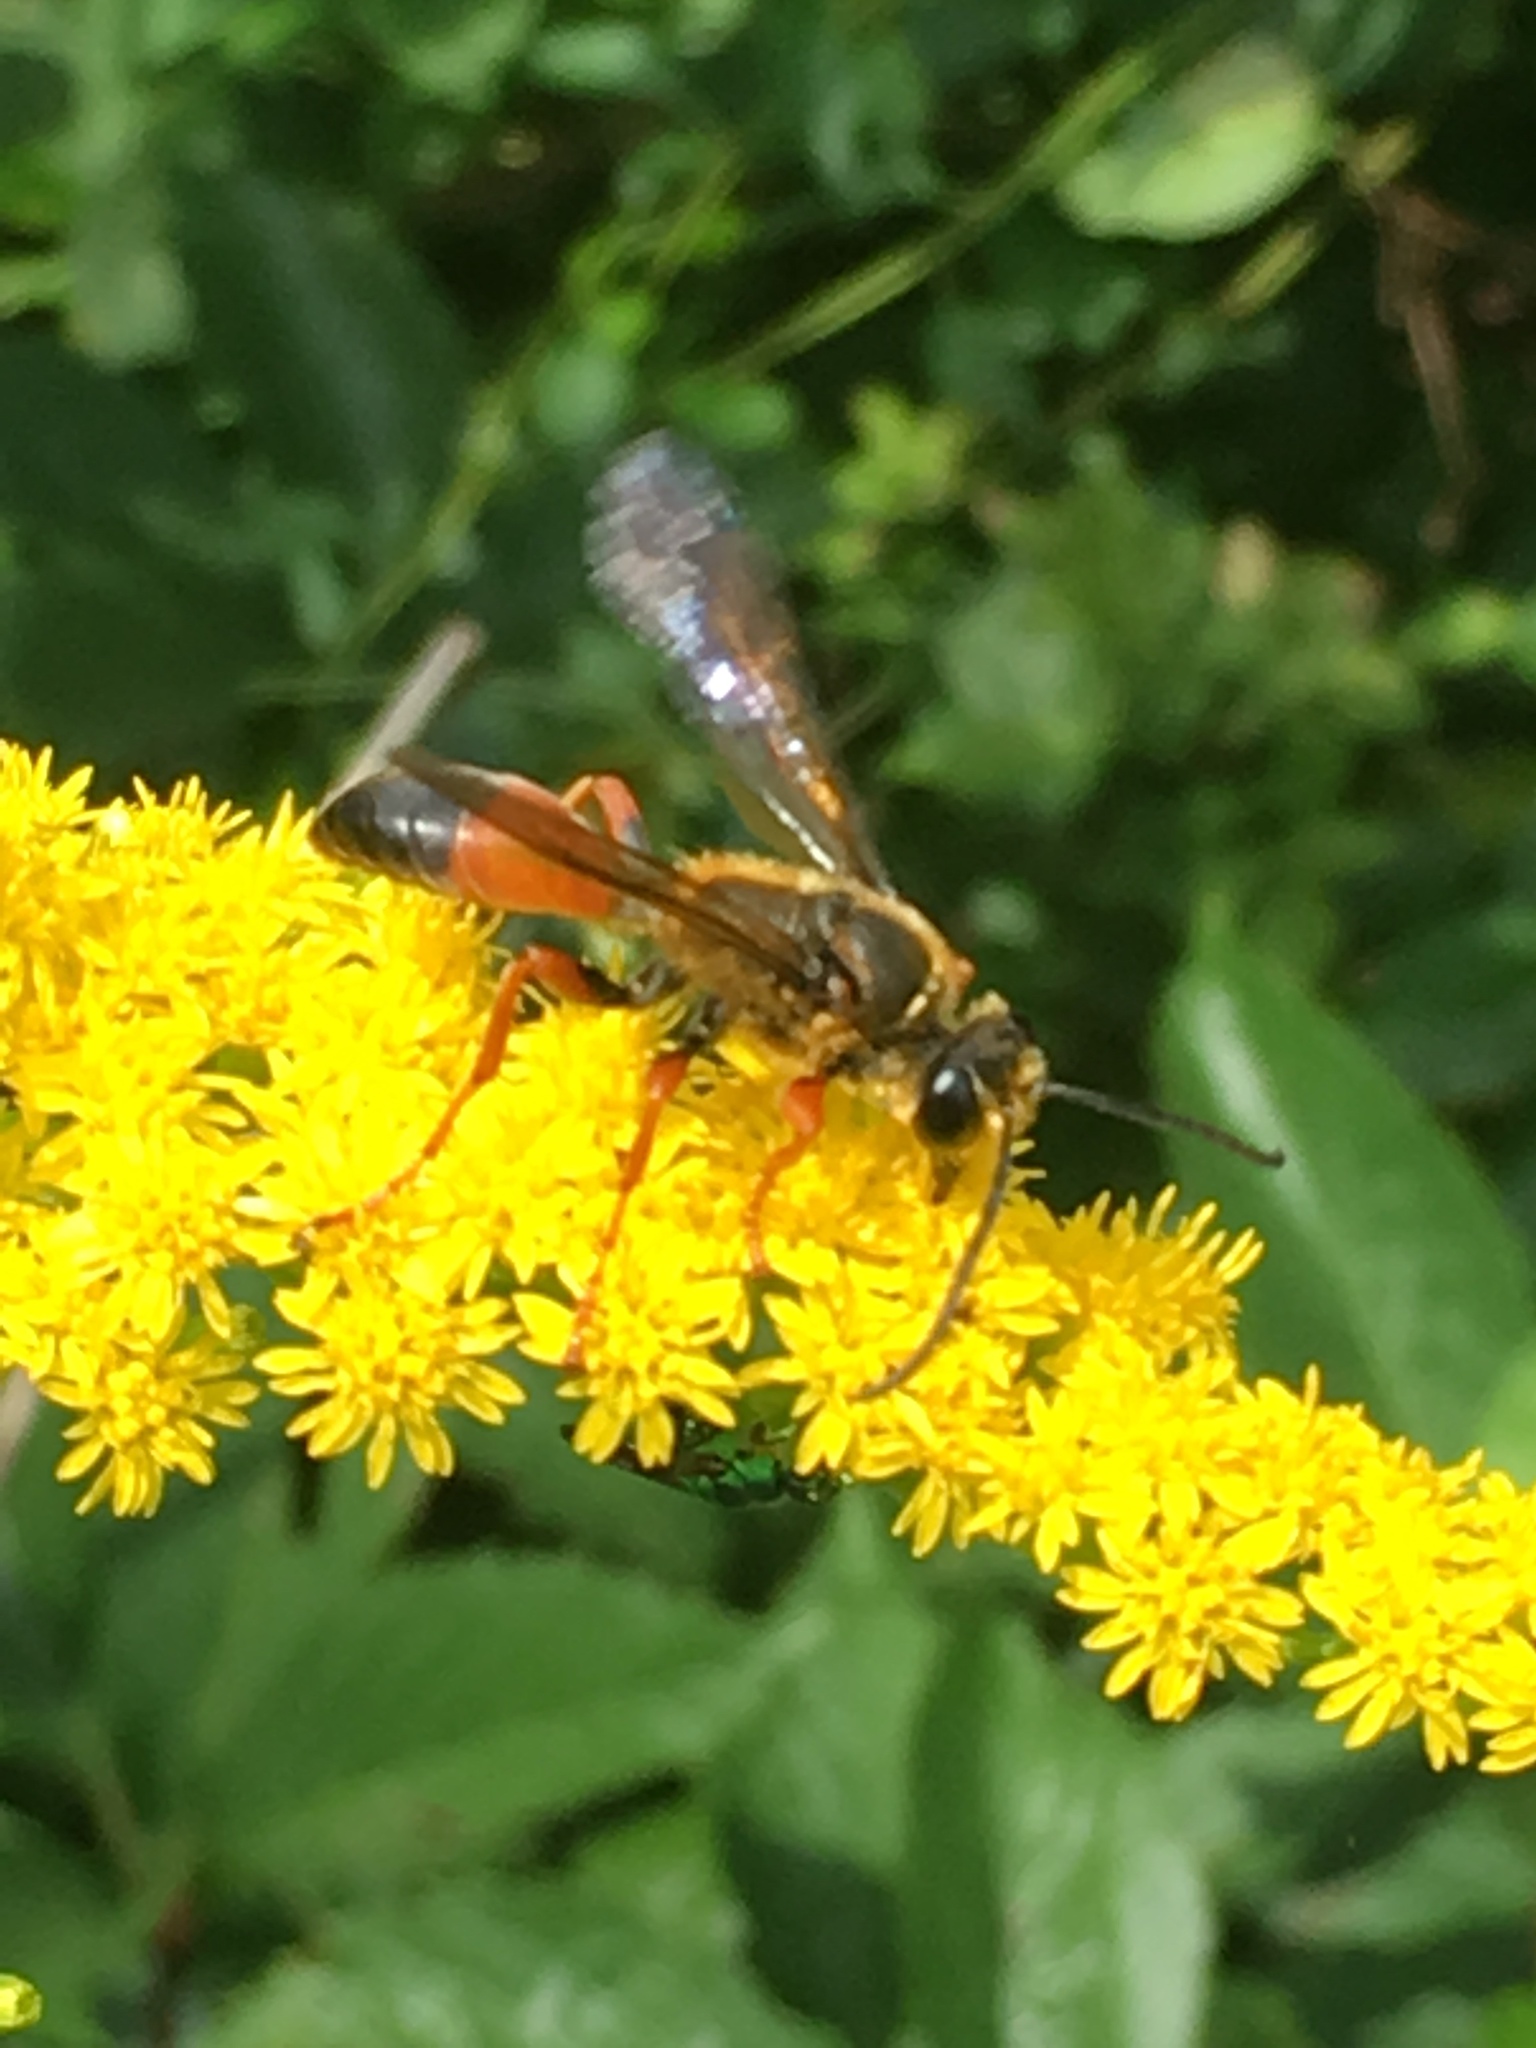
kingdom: Animalia
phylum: Arthropoda
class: Insecta
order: Hymenoptera
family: Sphecidae
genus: Sphex
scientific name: Sphex ichneumoneus
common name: Great golden digger wasp
